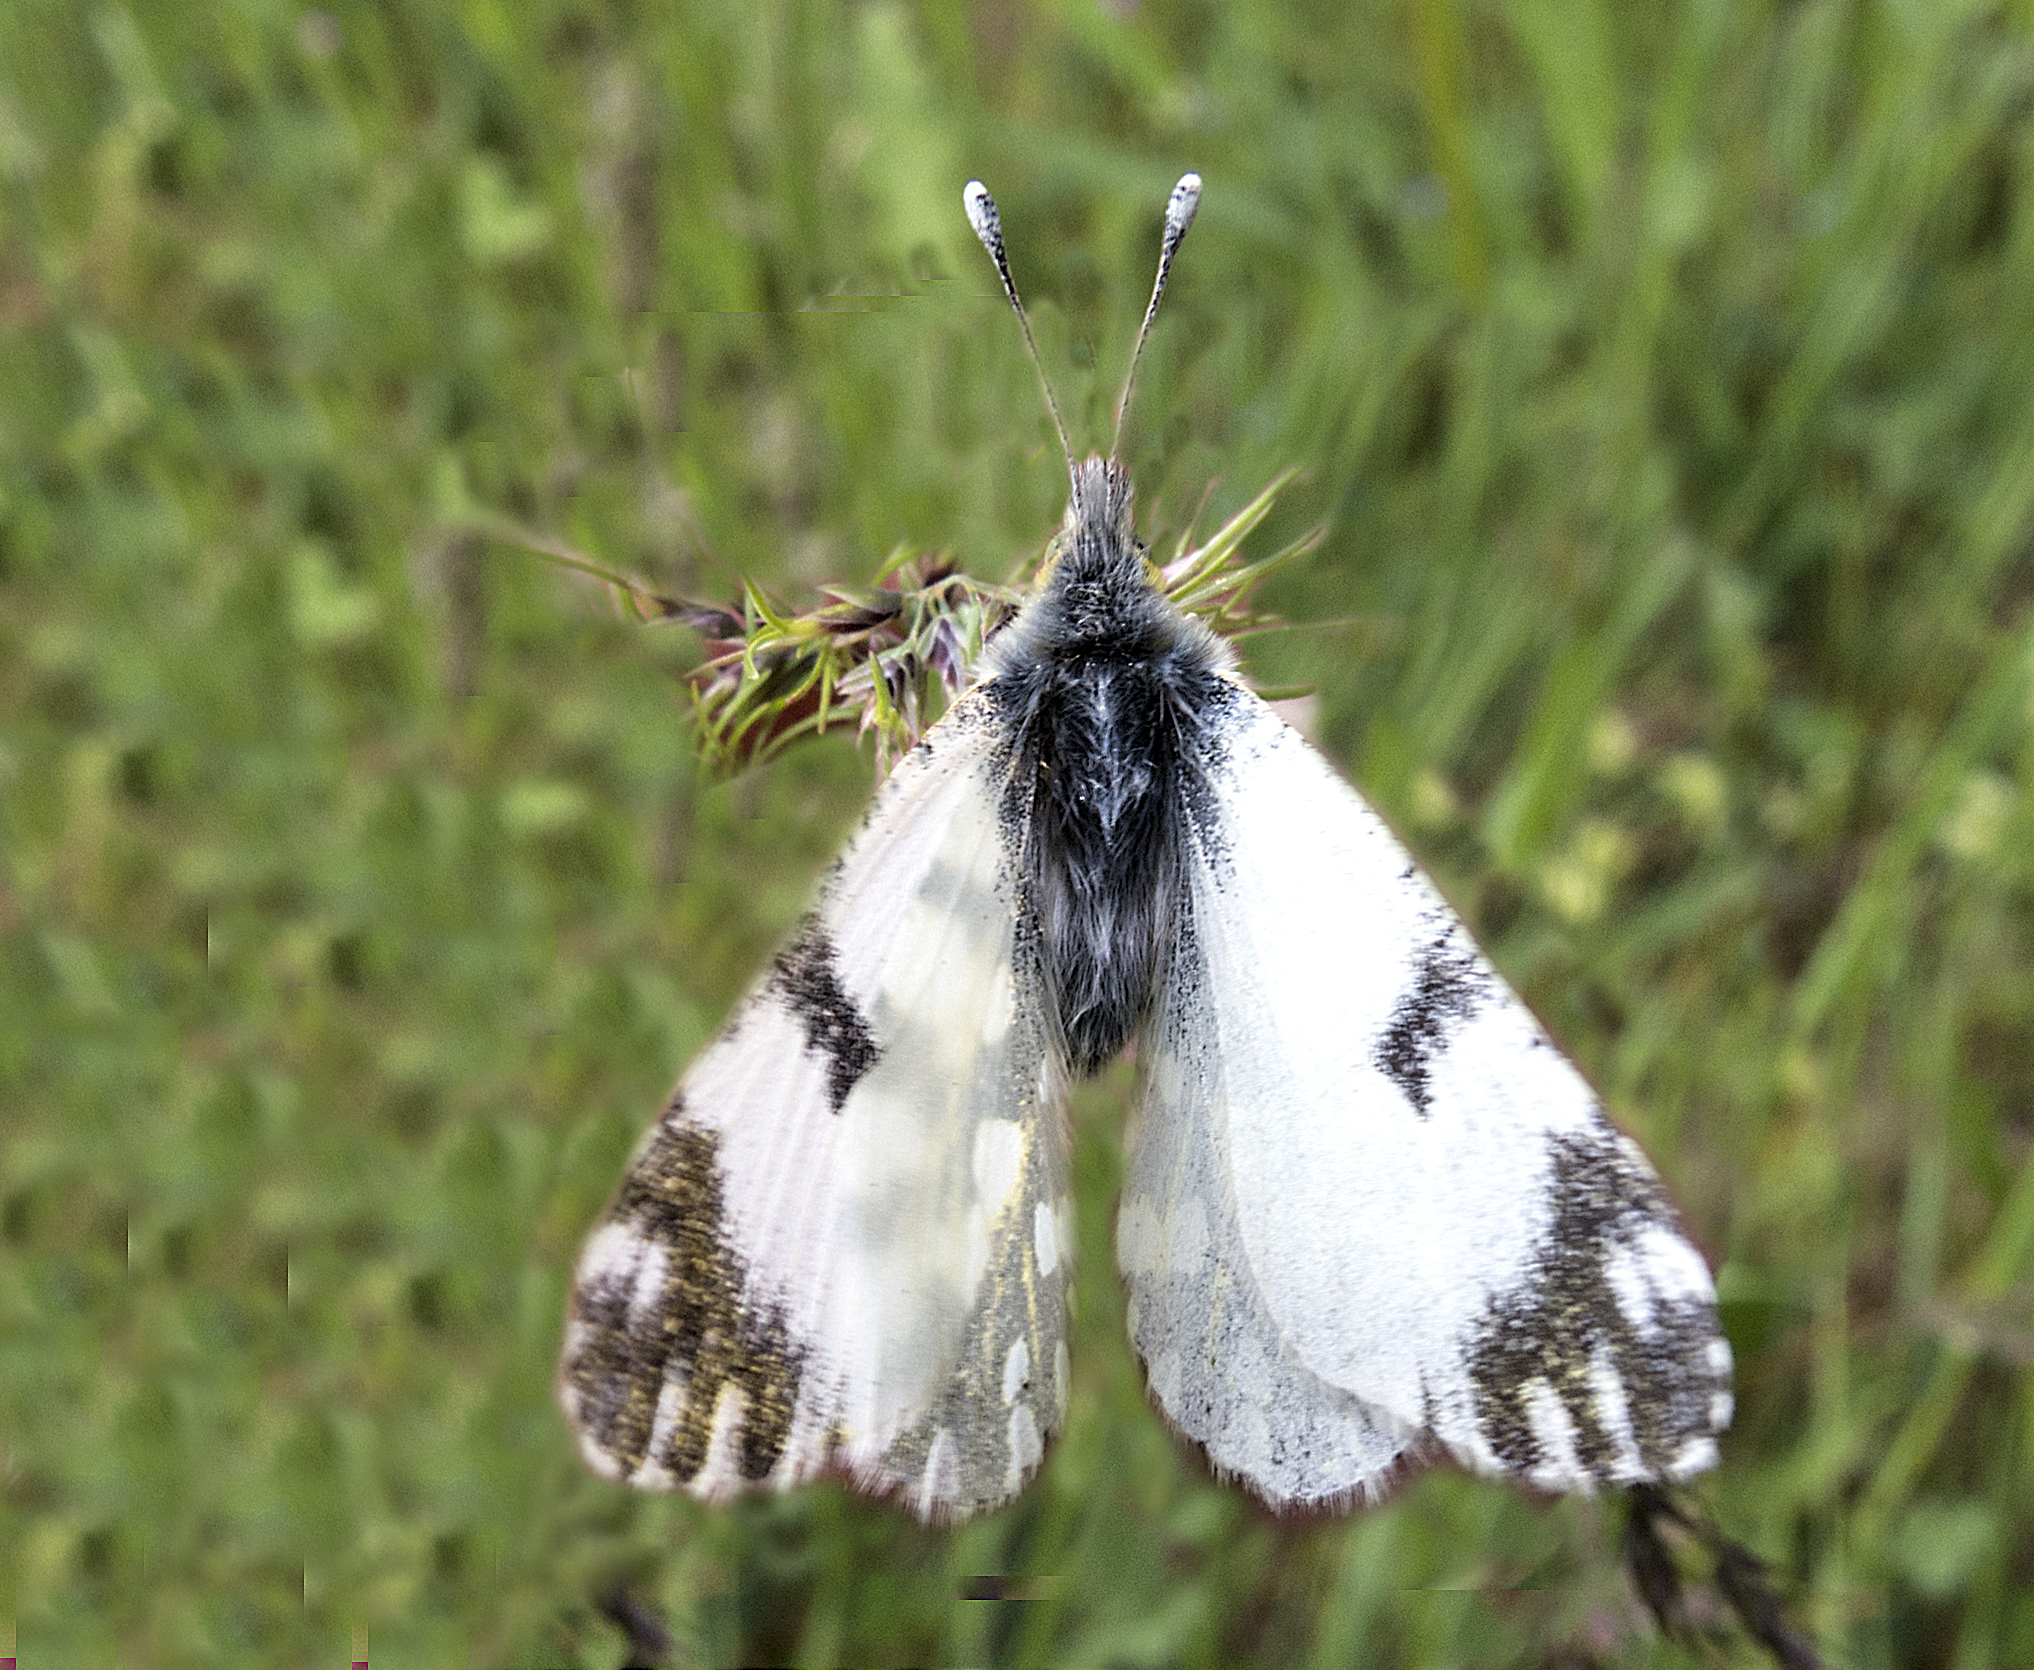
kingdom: Animalia
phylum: Arthropoda
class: Insecta
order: Lepidoptera
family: Pieridae
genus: Euchloe
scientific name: Euchloe ausonia
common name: Eastern dappled white
